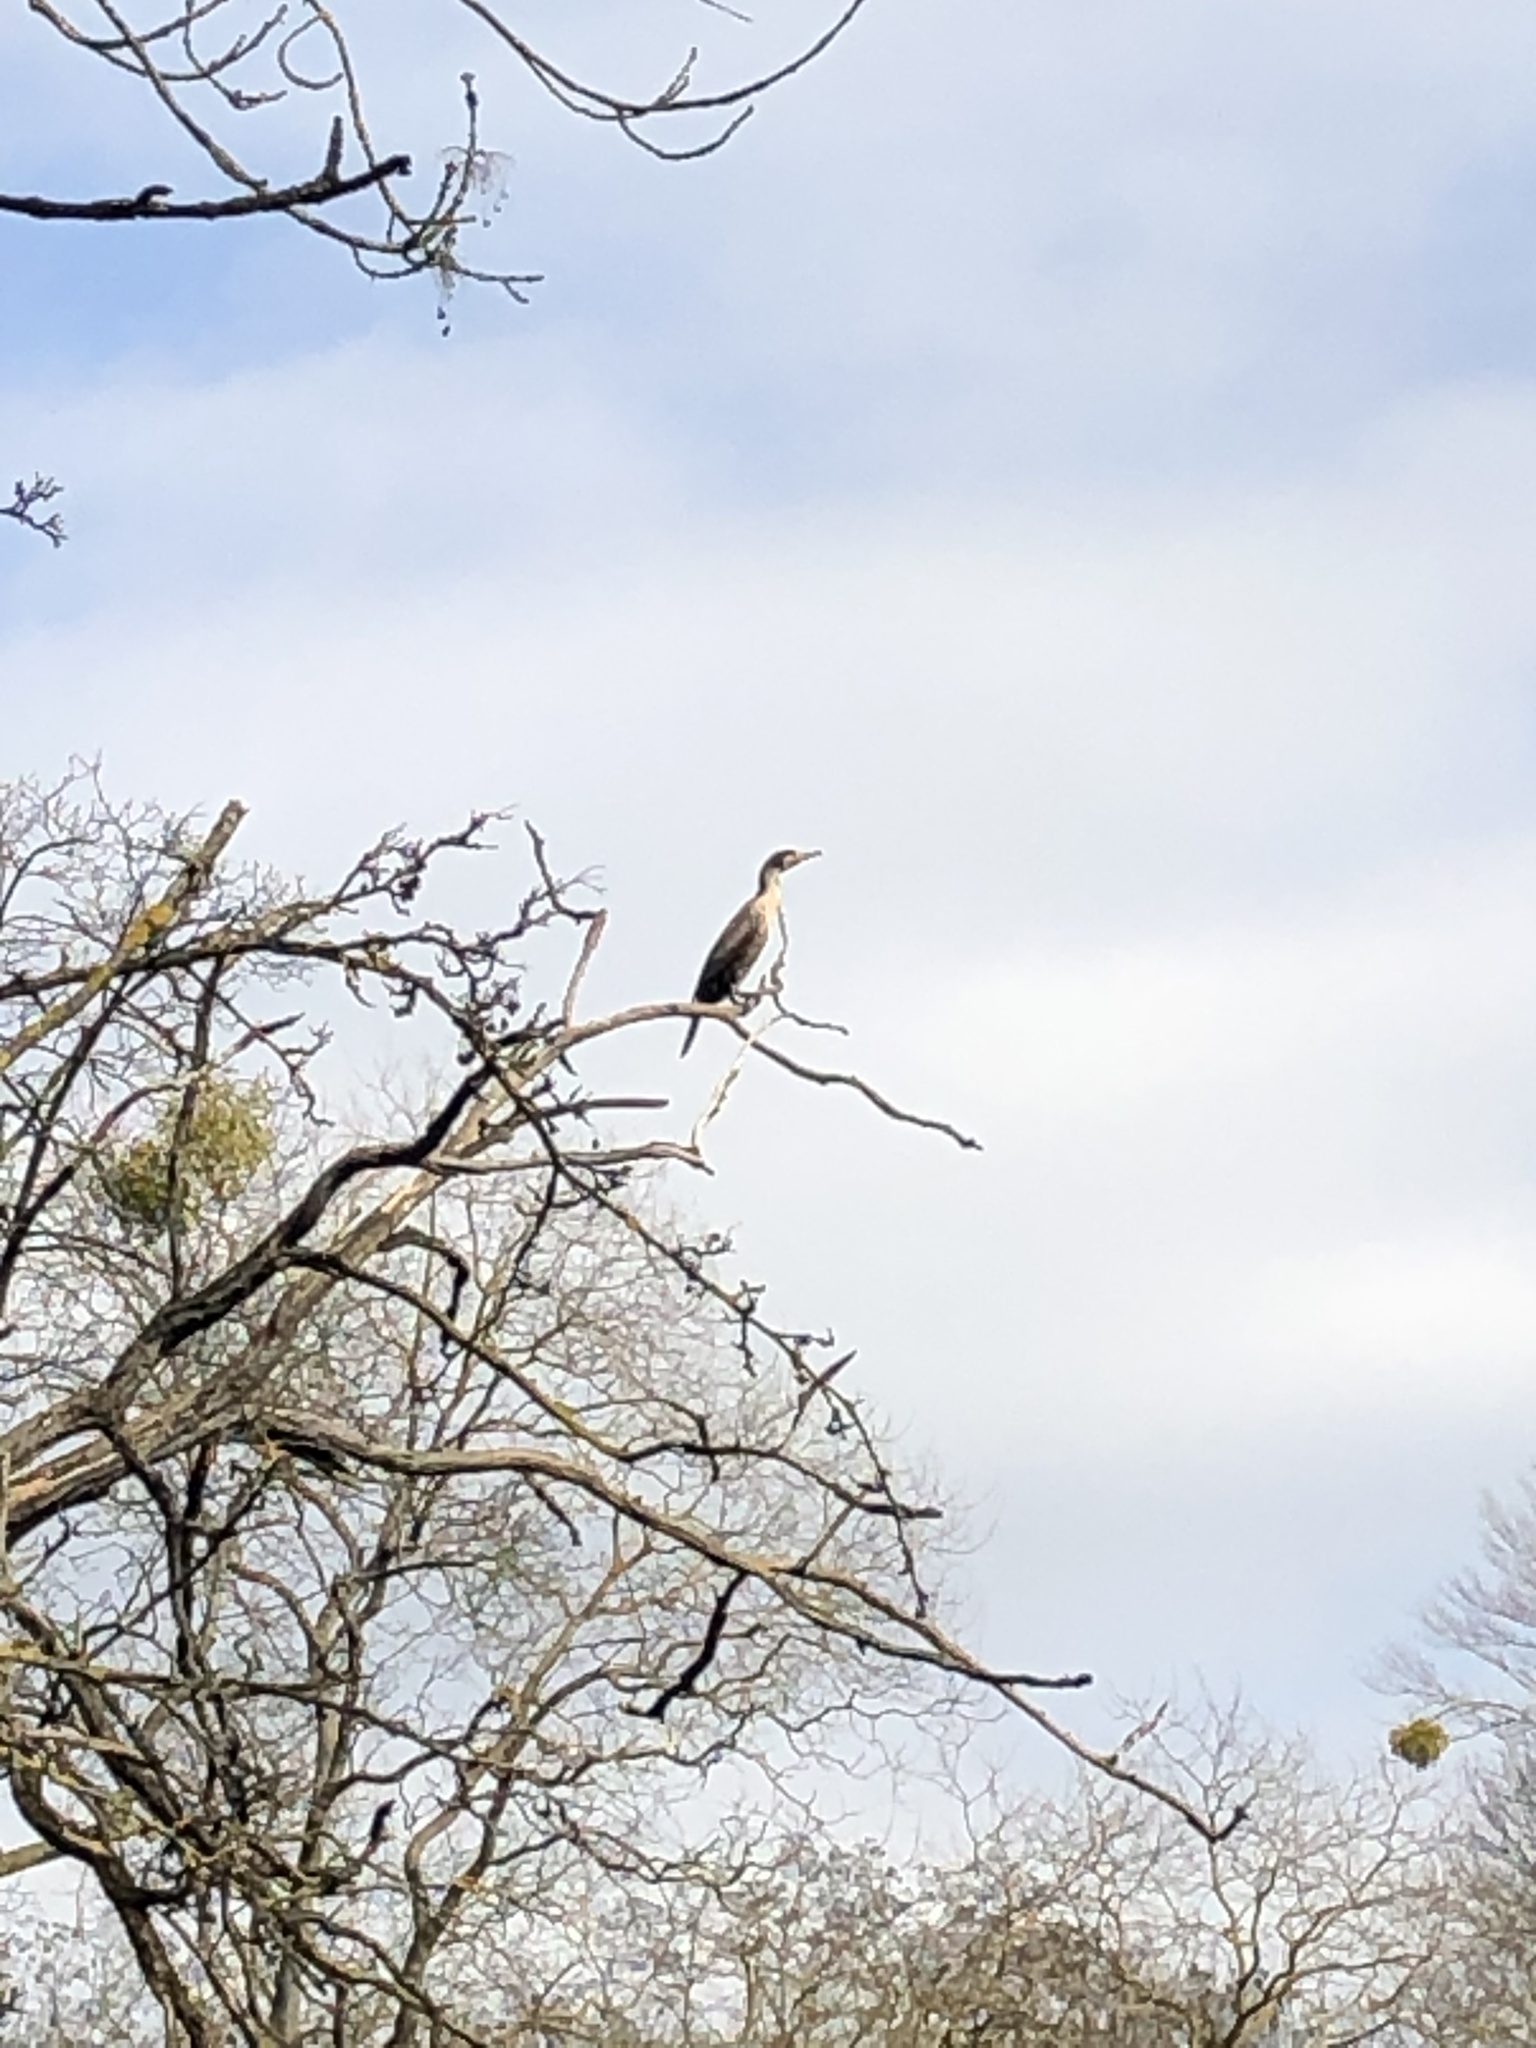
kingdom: Animalia
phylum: Chordata
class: Aves
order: Suliformes
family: Phalacrocoracidae
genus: Phalacrocorax
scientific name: Phalacrocorax carbo
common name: Great cormorant
